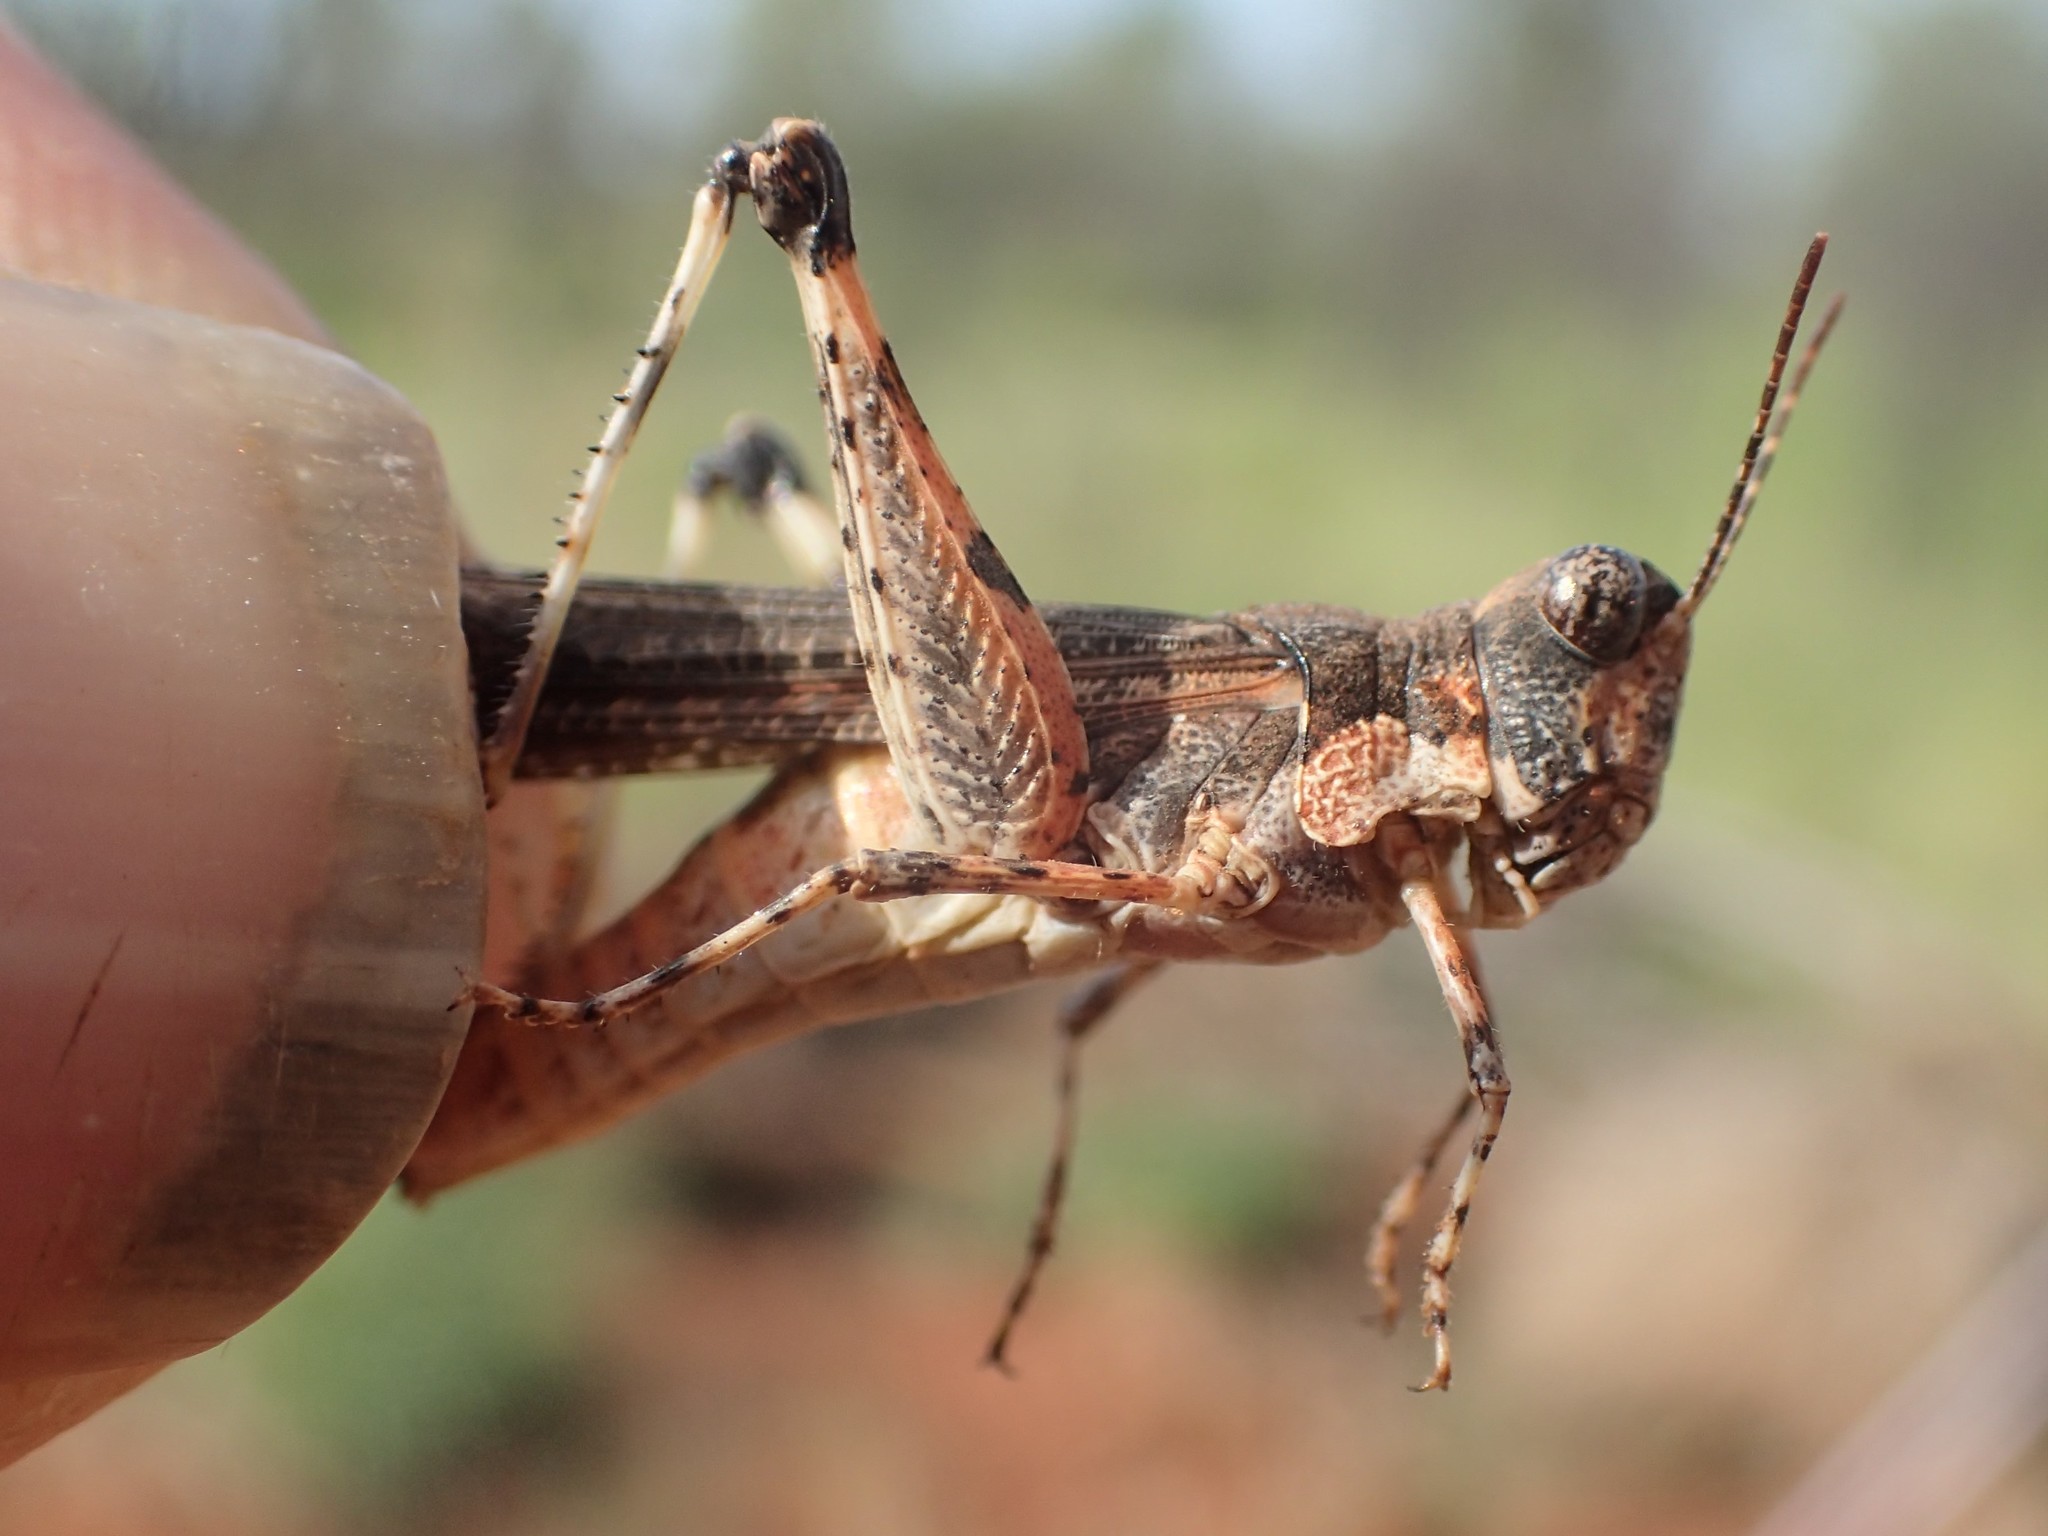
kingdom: Animalia
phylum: Arthropoda
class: Insecta
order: Orthoptera
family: Acrididae
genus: Pycnostictus
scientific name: Pycnostictus seriatus
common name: Common bandwing
